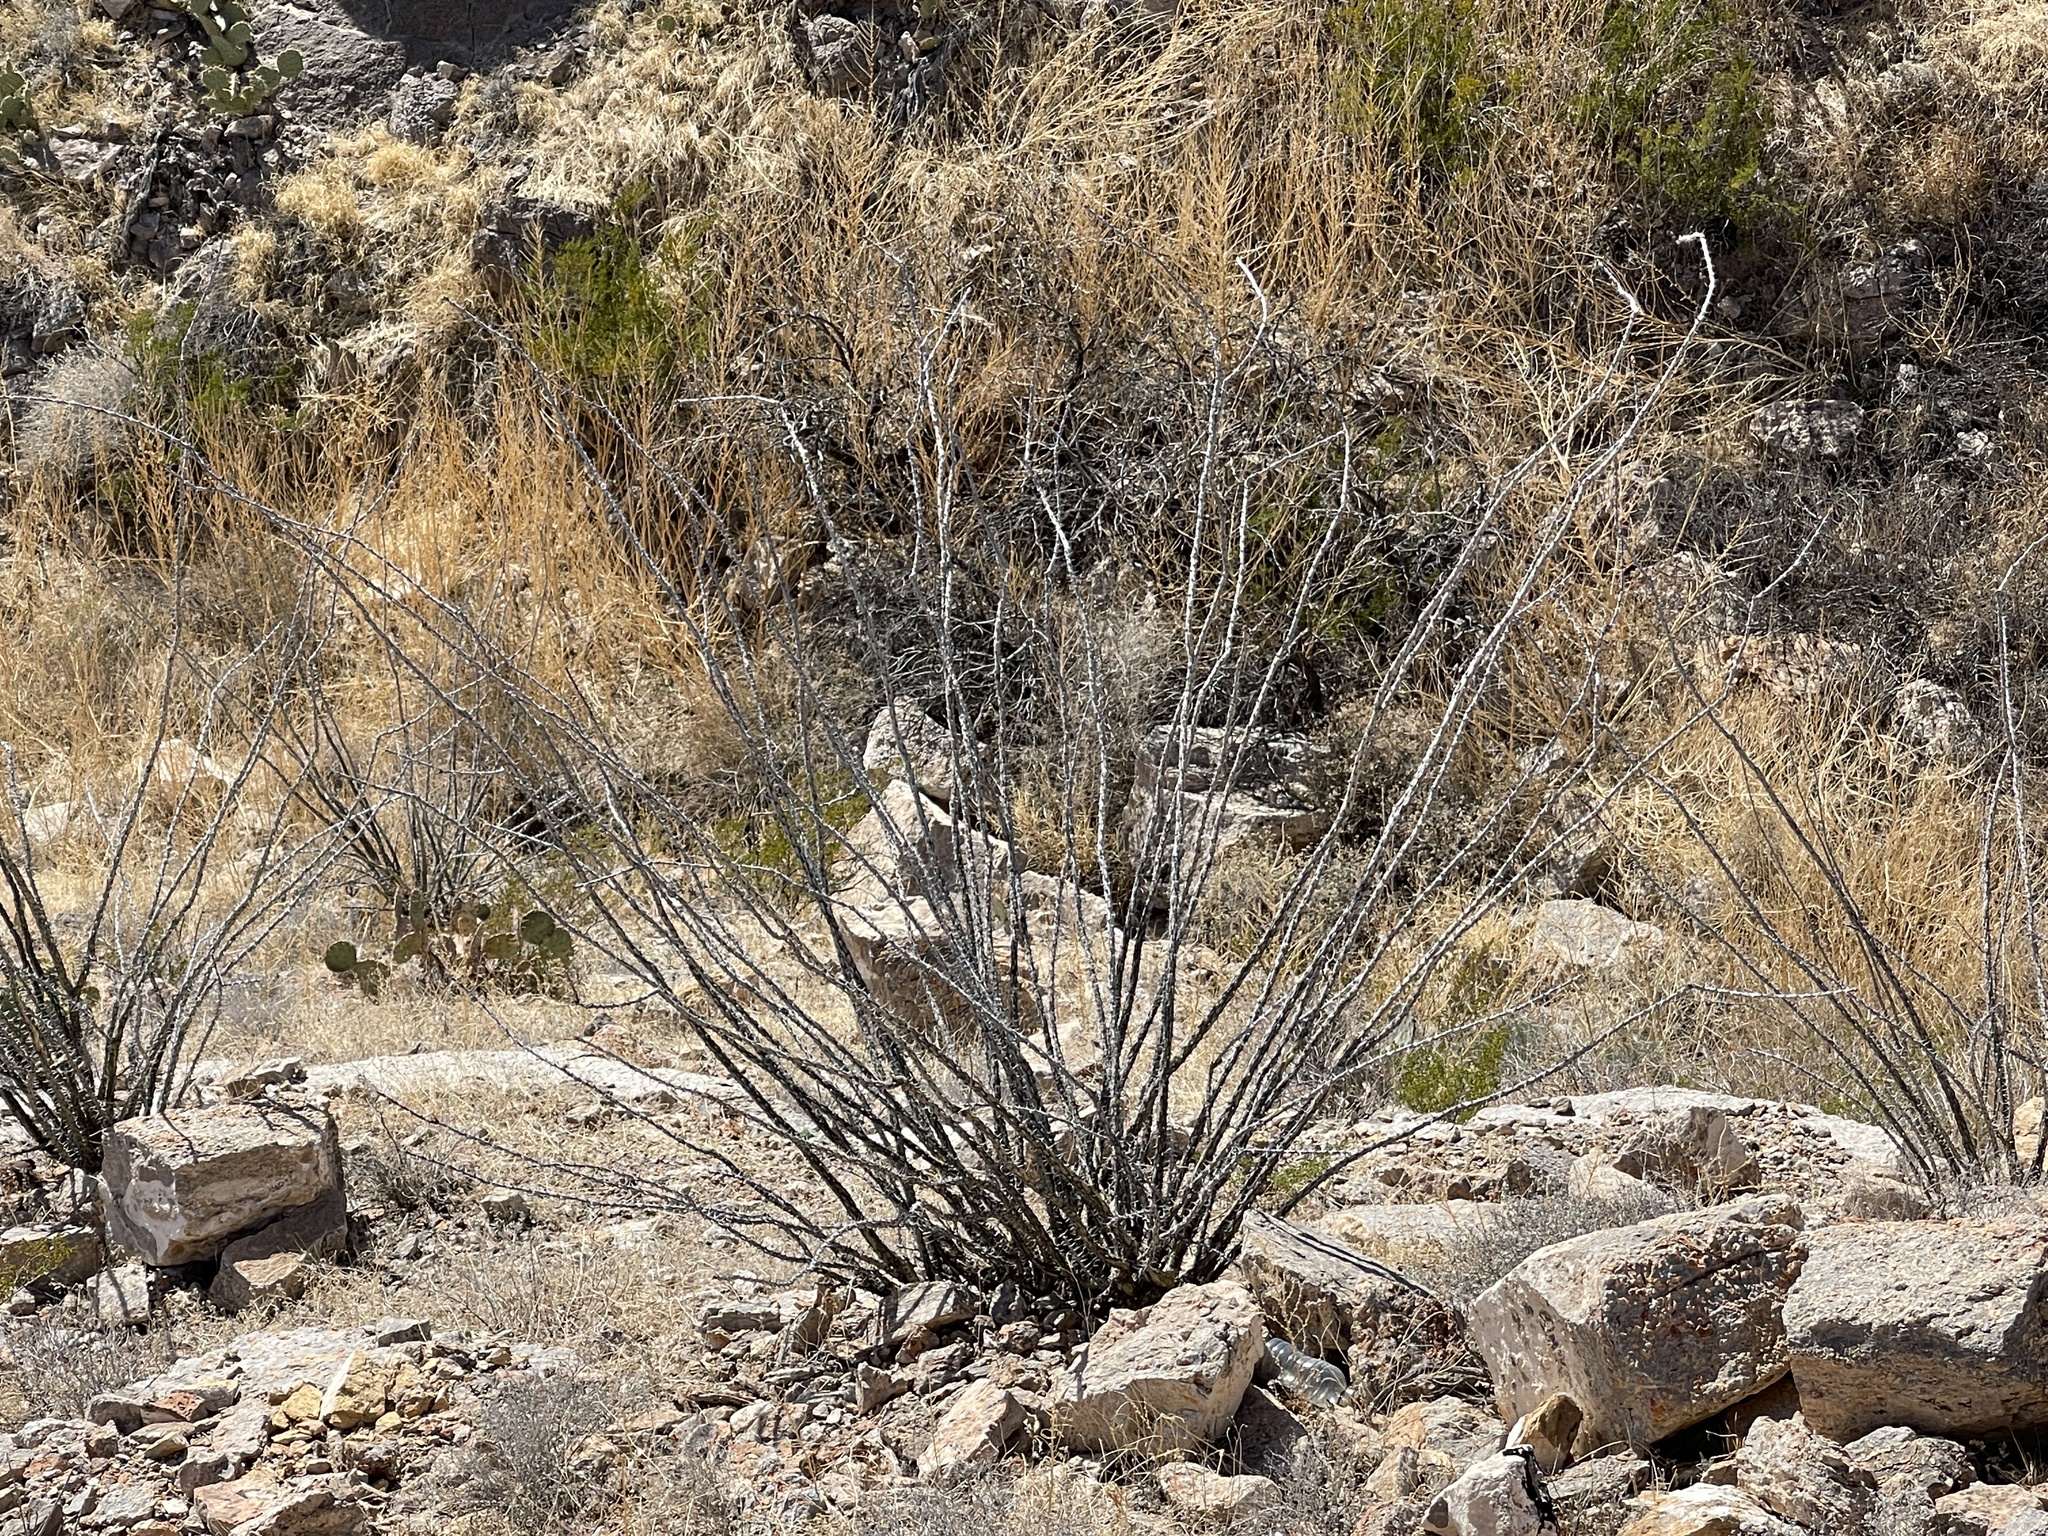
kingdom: Plantae
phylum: Tracheophyta
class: Magnoliopsida
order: Ericales
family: Fouquieriaceae
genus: Fouquieria
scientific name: Fouquieria splendens
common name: Vine-cactus
